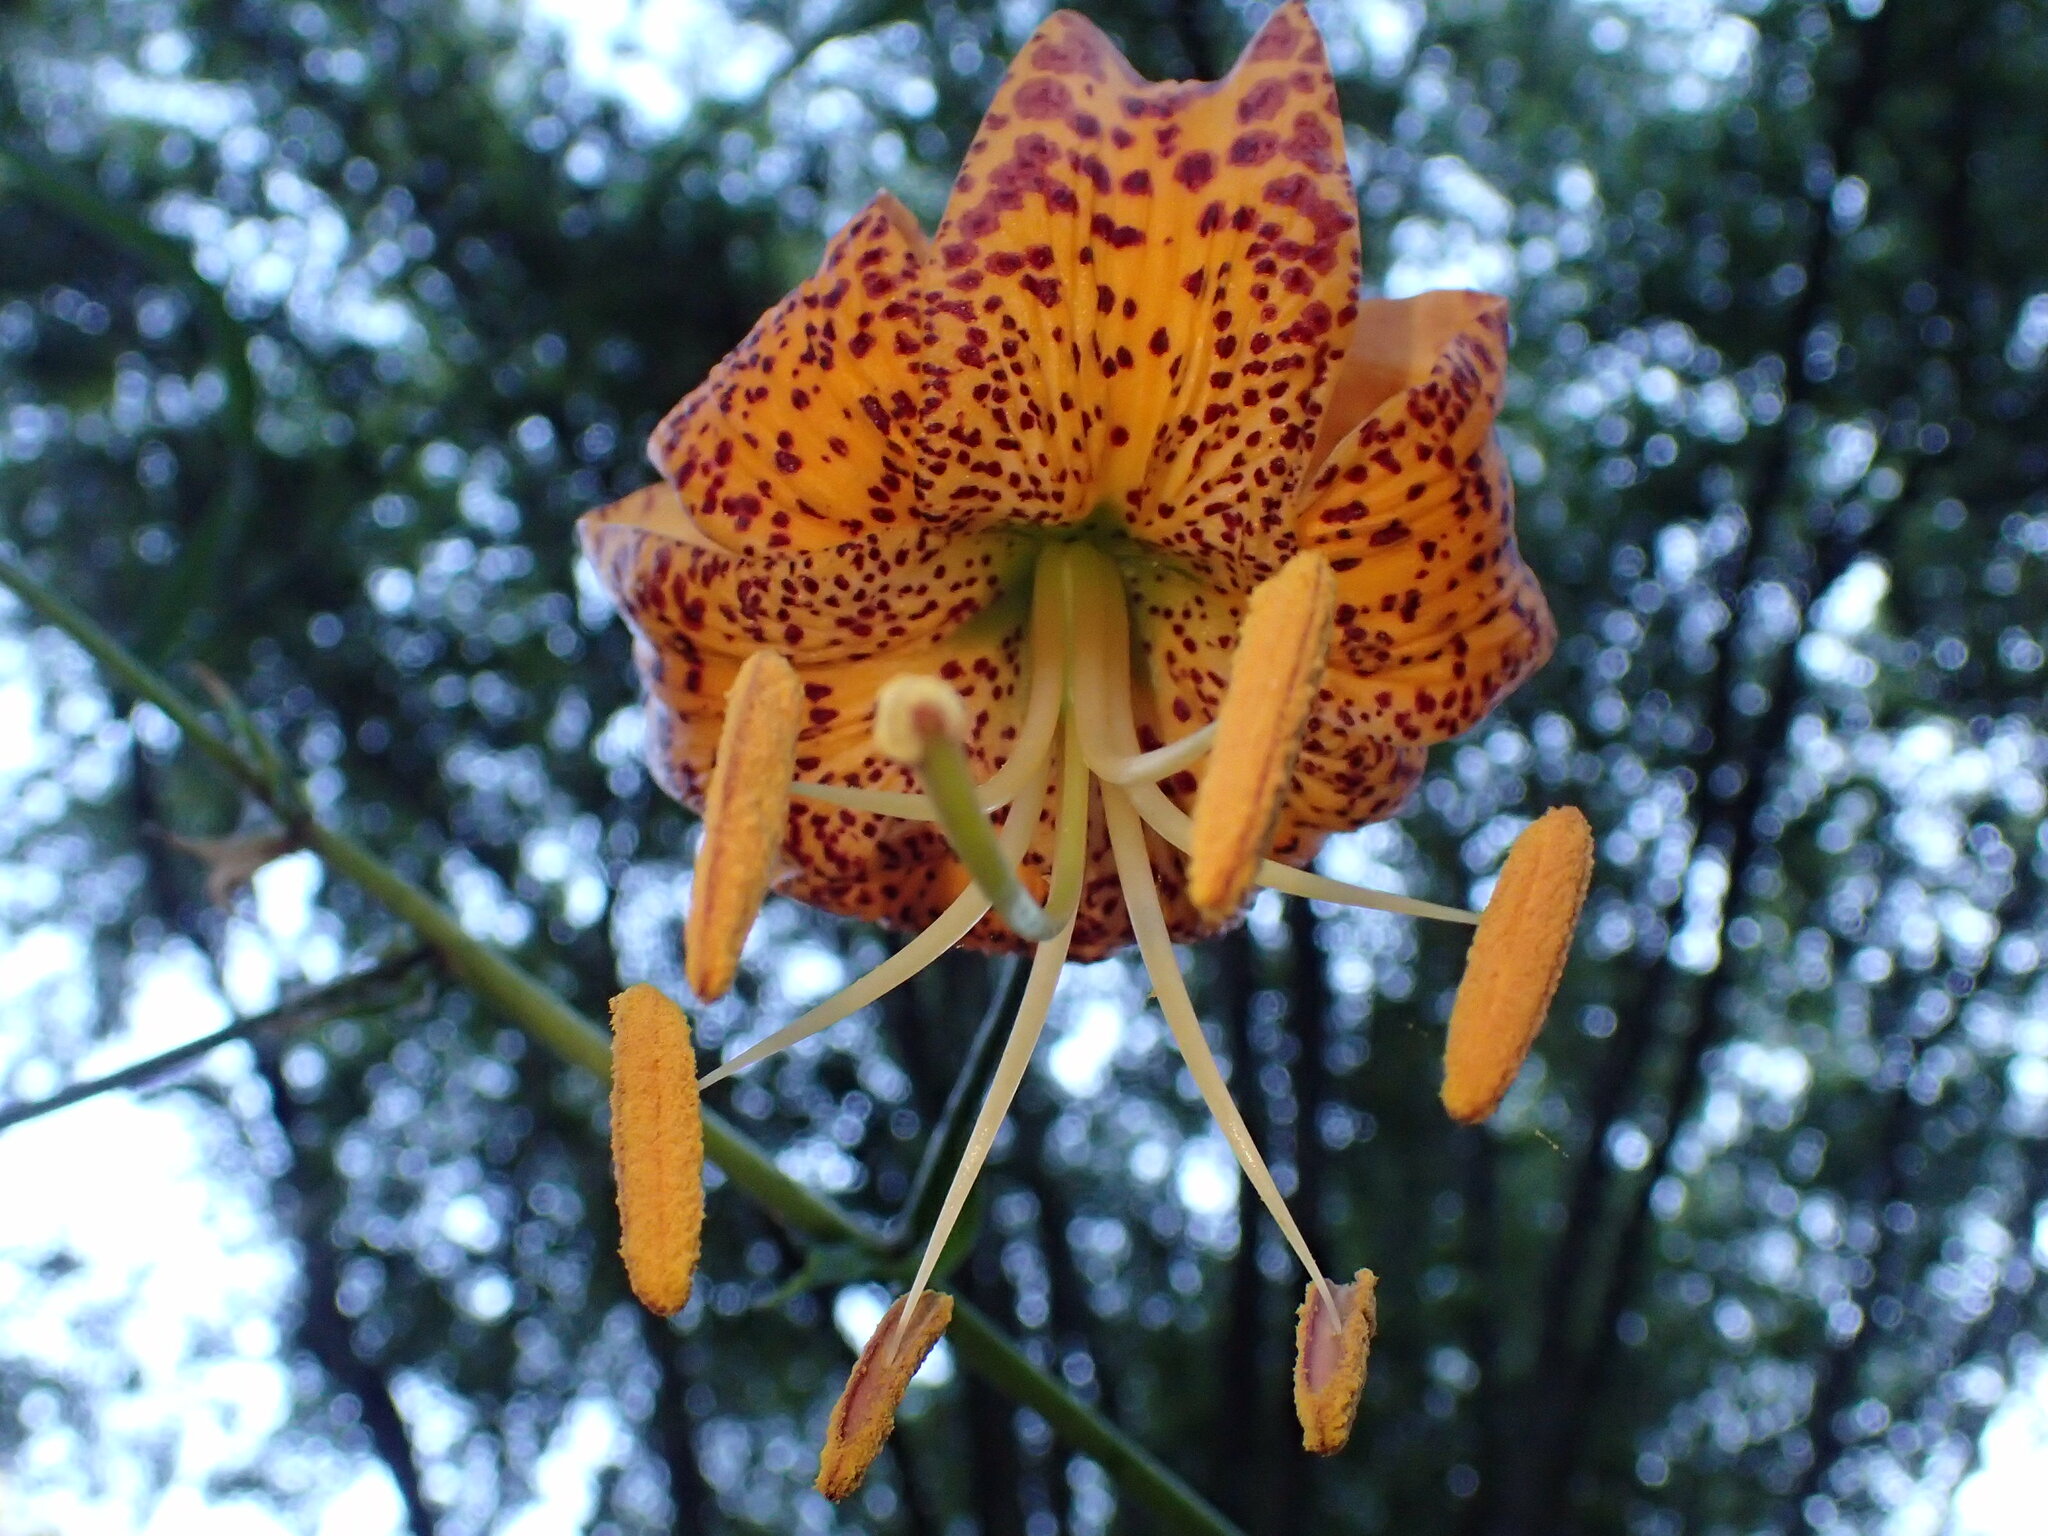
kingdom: Plantae
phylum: Tracheophyta
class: Liliopsida
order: Liliales
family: Liliaceae
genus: Lilium
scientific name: Lilium humboldtii
